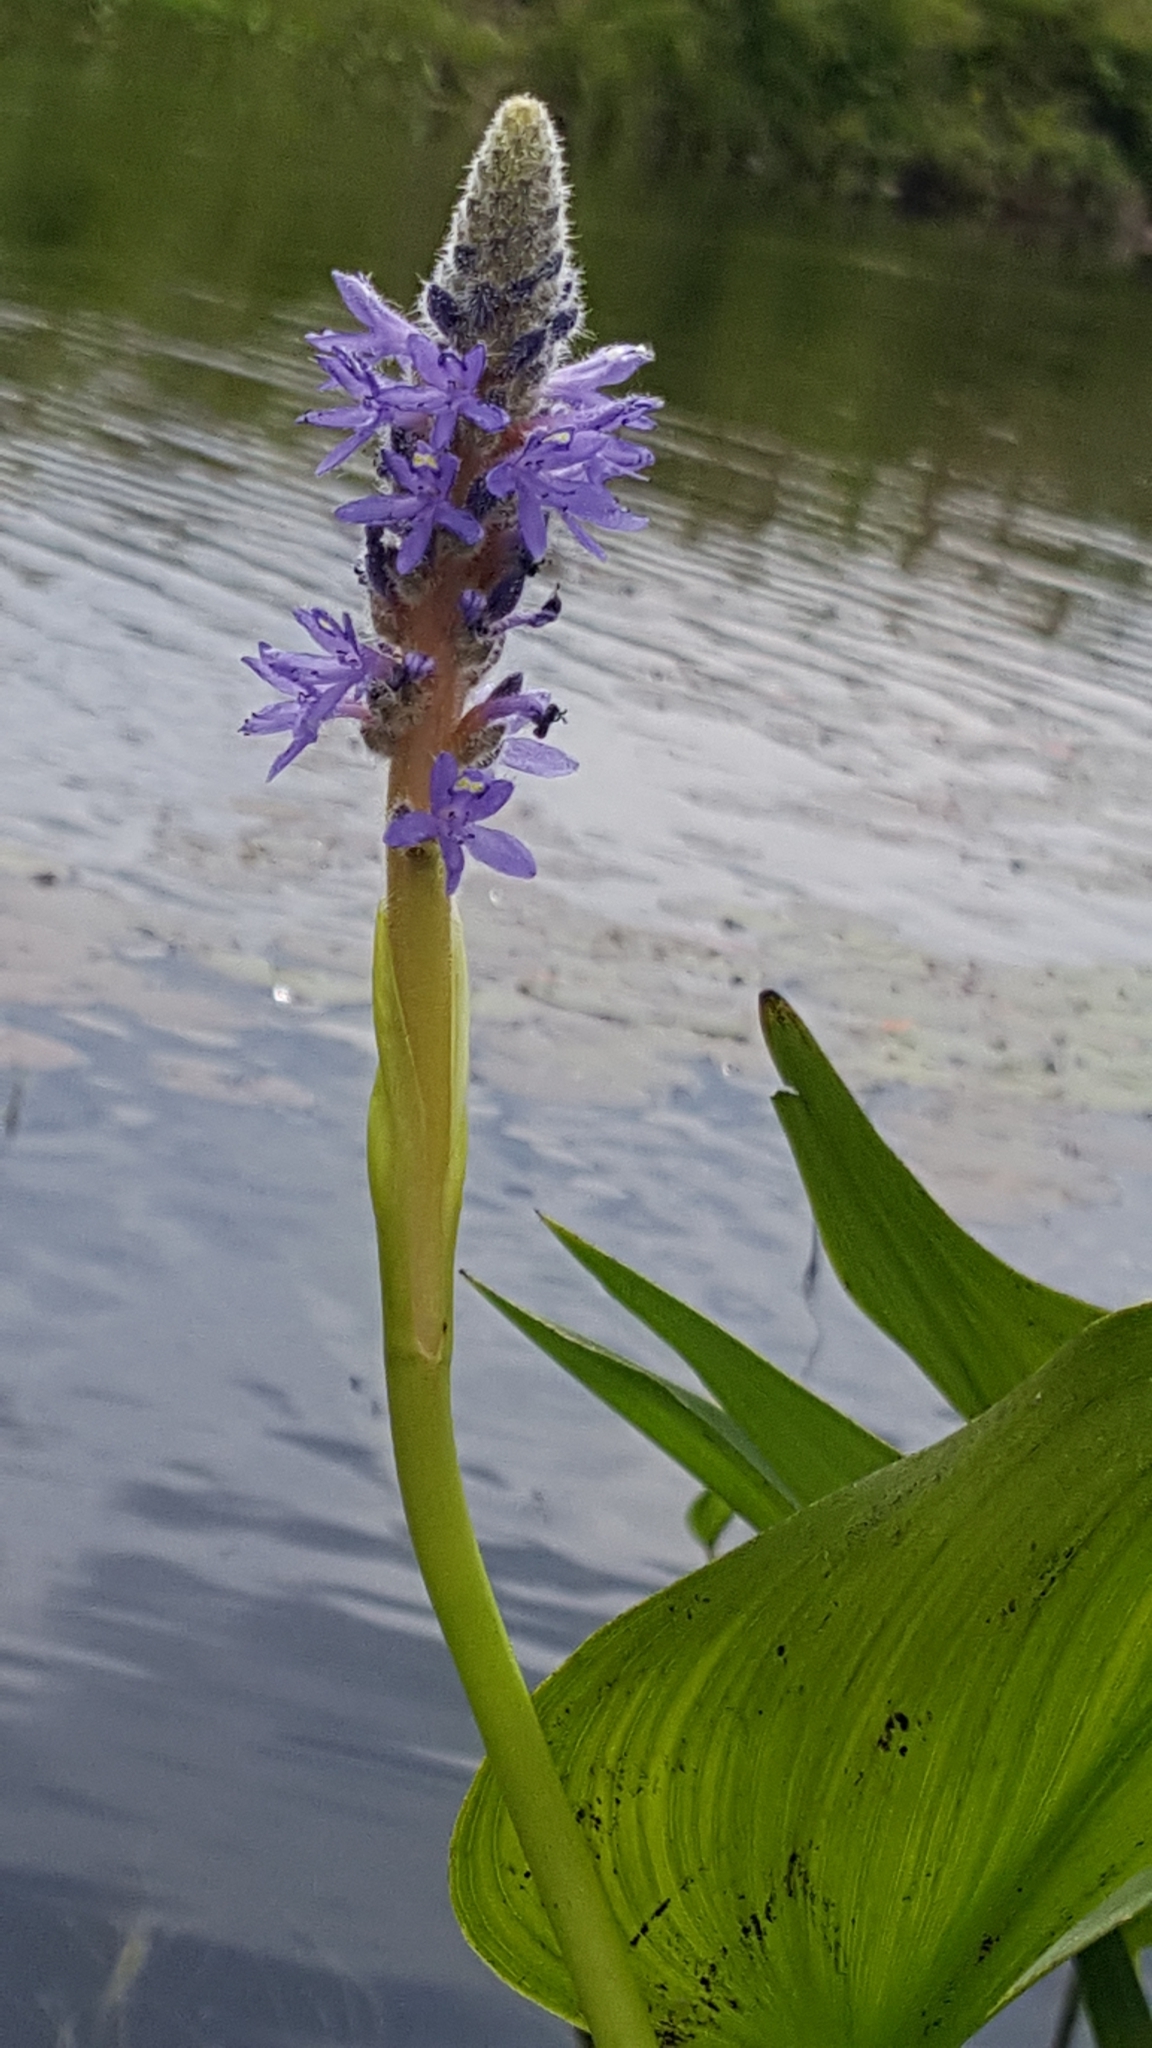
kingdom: Plantae
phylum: Tracheophyta
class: Liliopsida
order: Commelinales
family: Pontederiaceae
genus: Pontederia
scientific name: Pontederia cordata
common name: Pickerelweed
